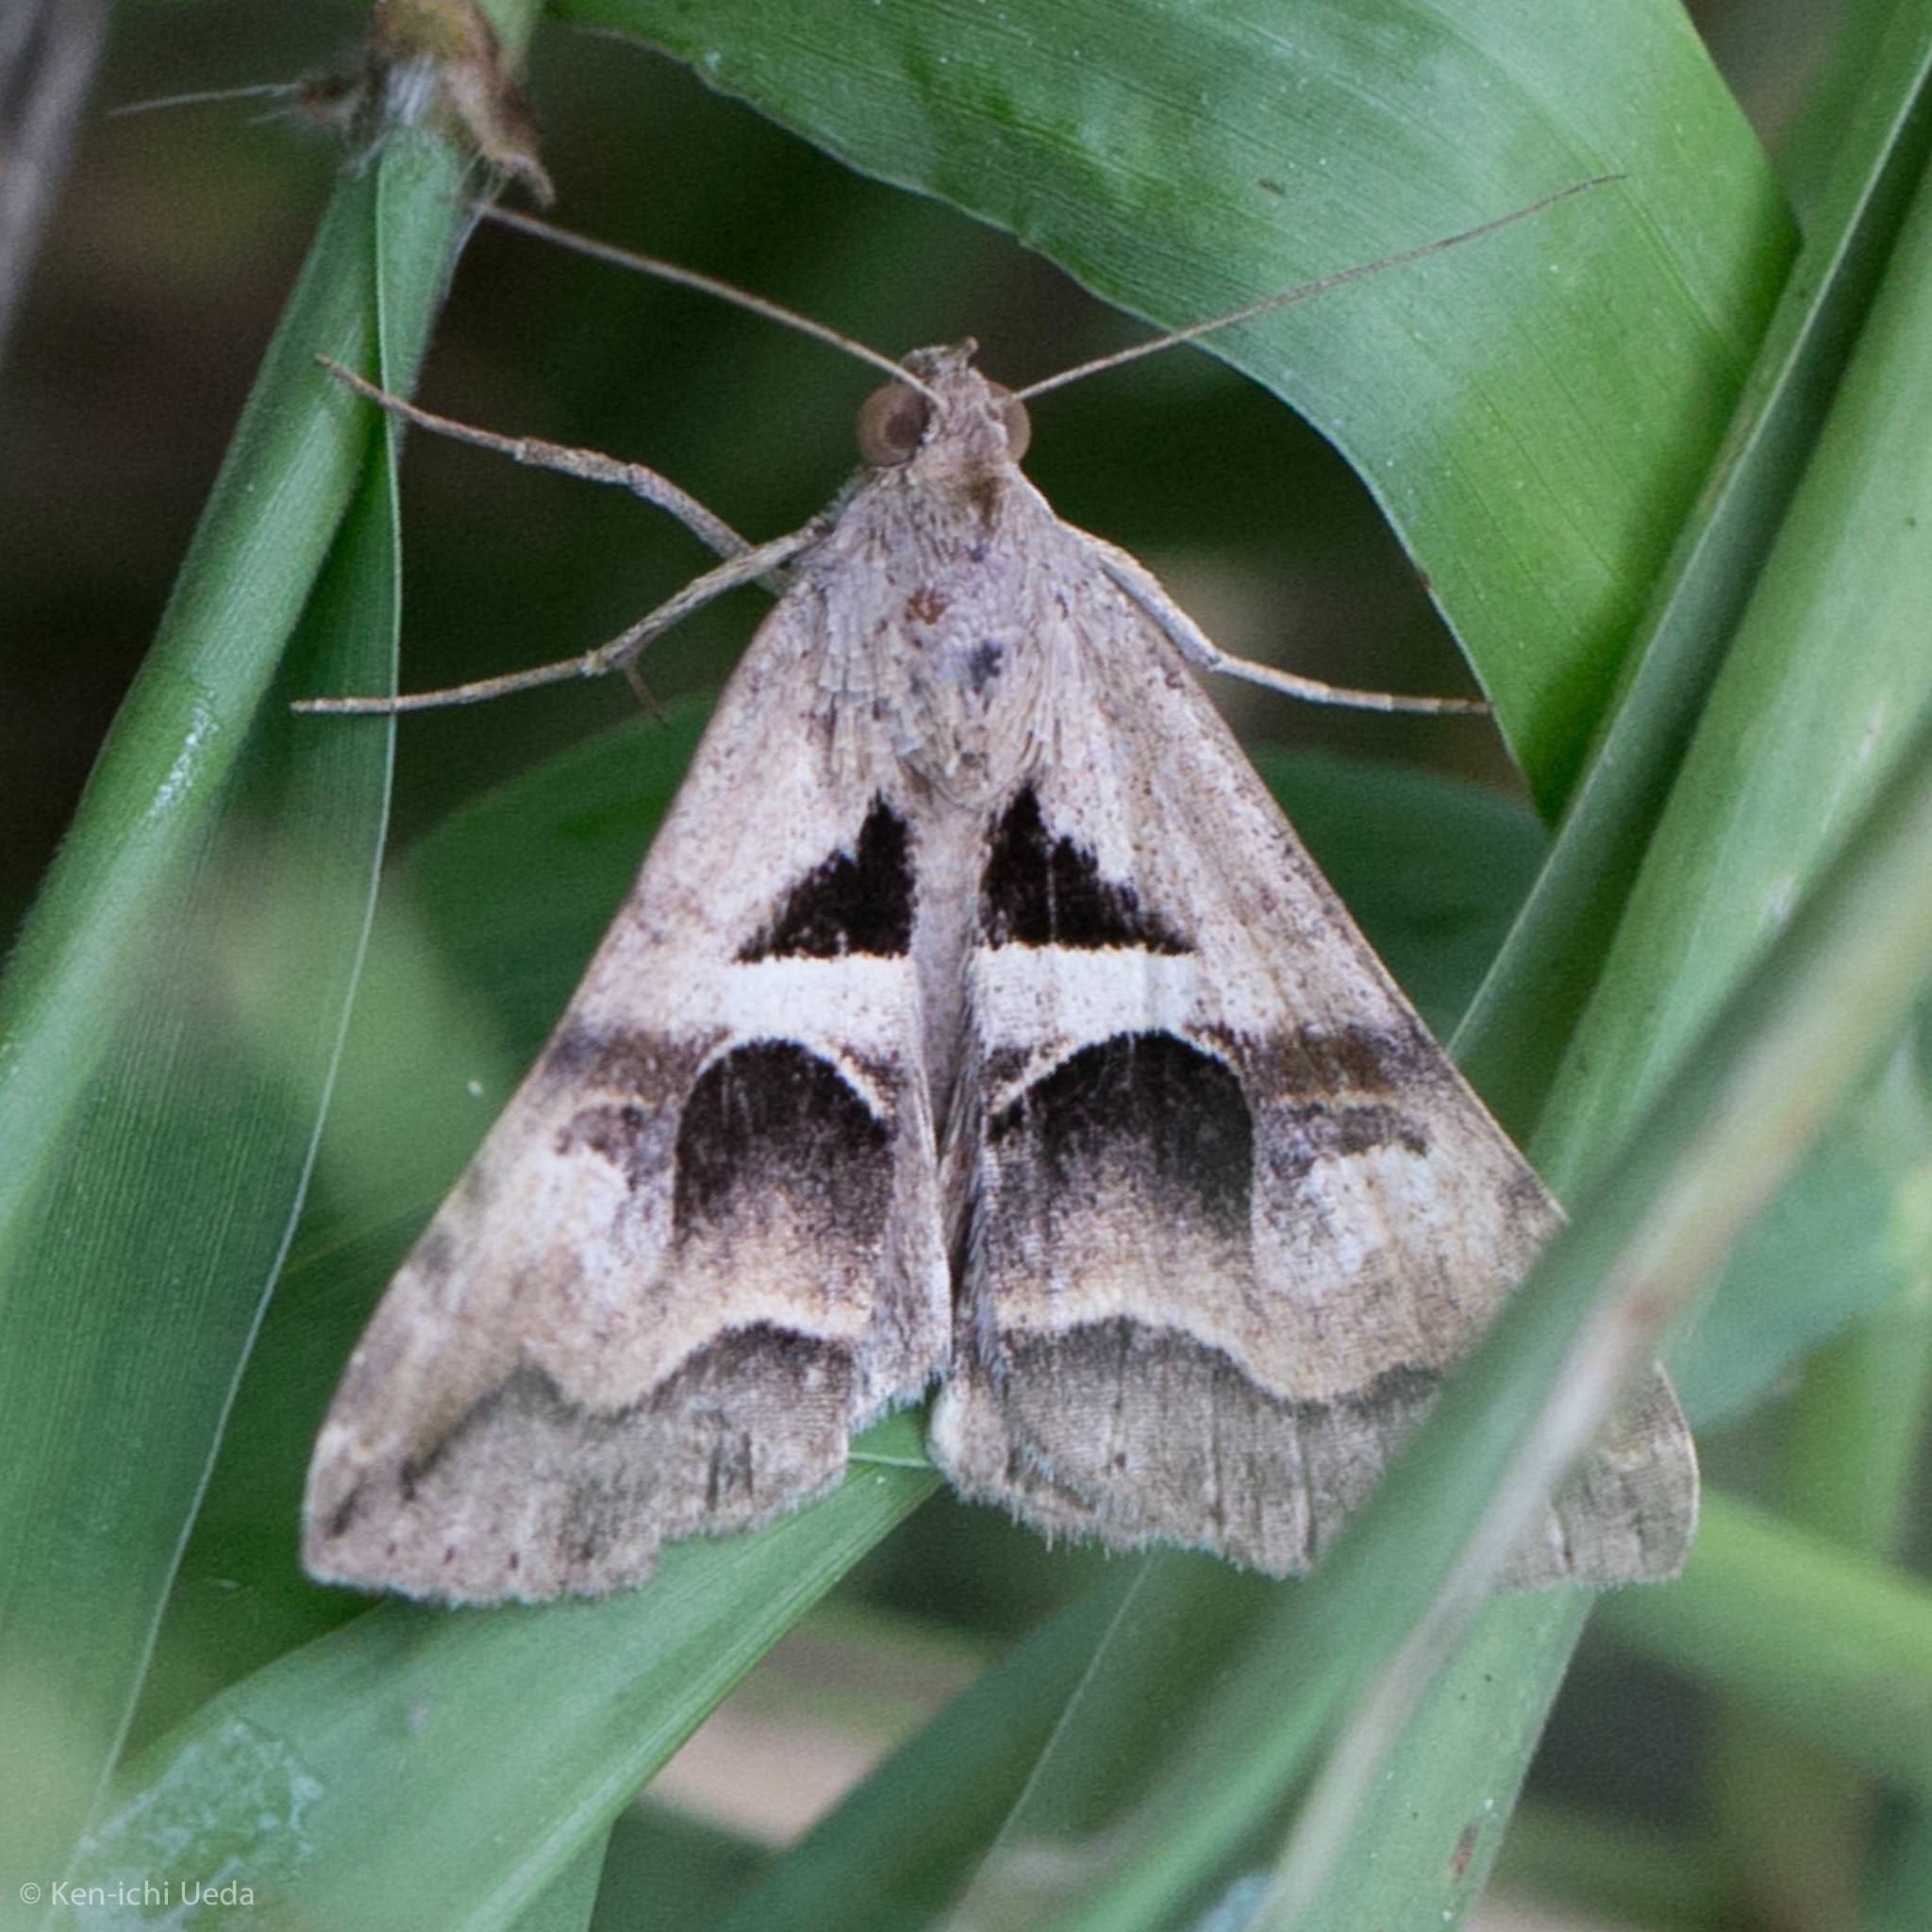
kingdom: Animalia
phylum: Arthropoda
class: Insecta
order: Lepidoptera
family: Erebidae
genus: Melipotis
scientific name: Melipotis cellaris
